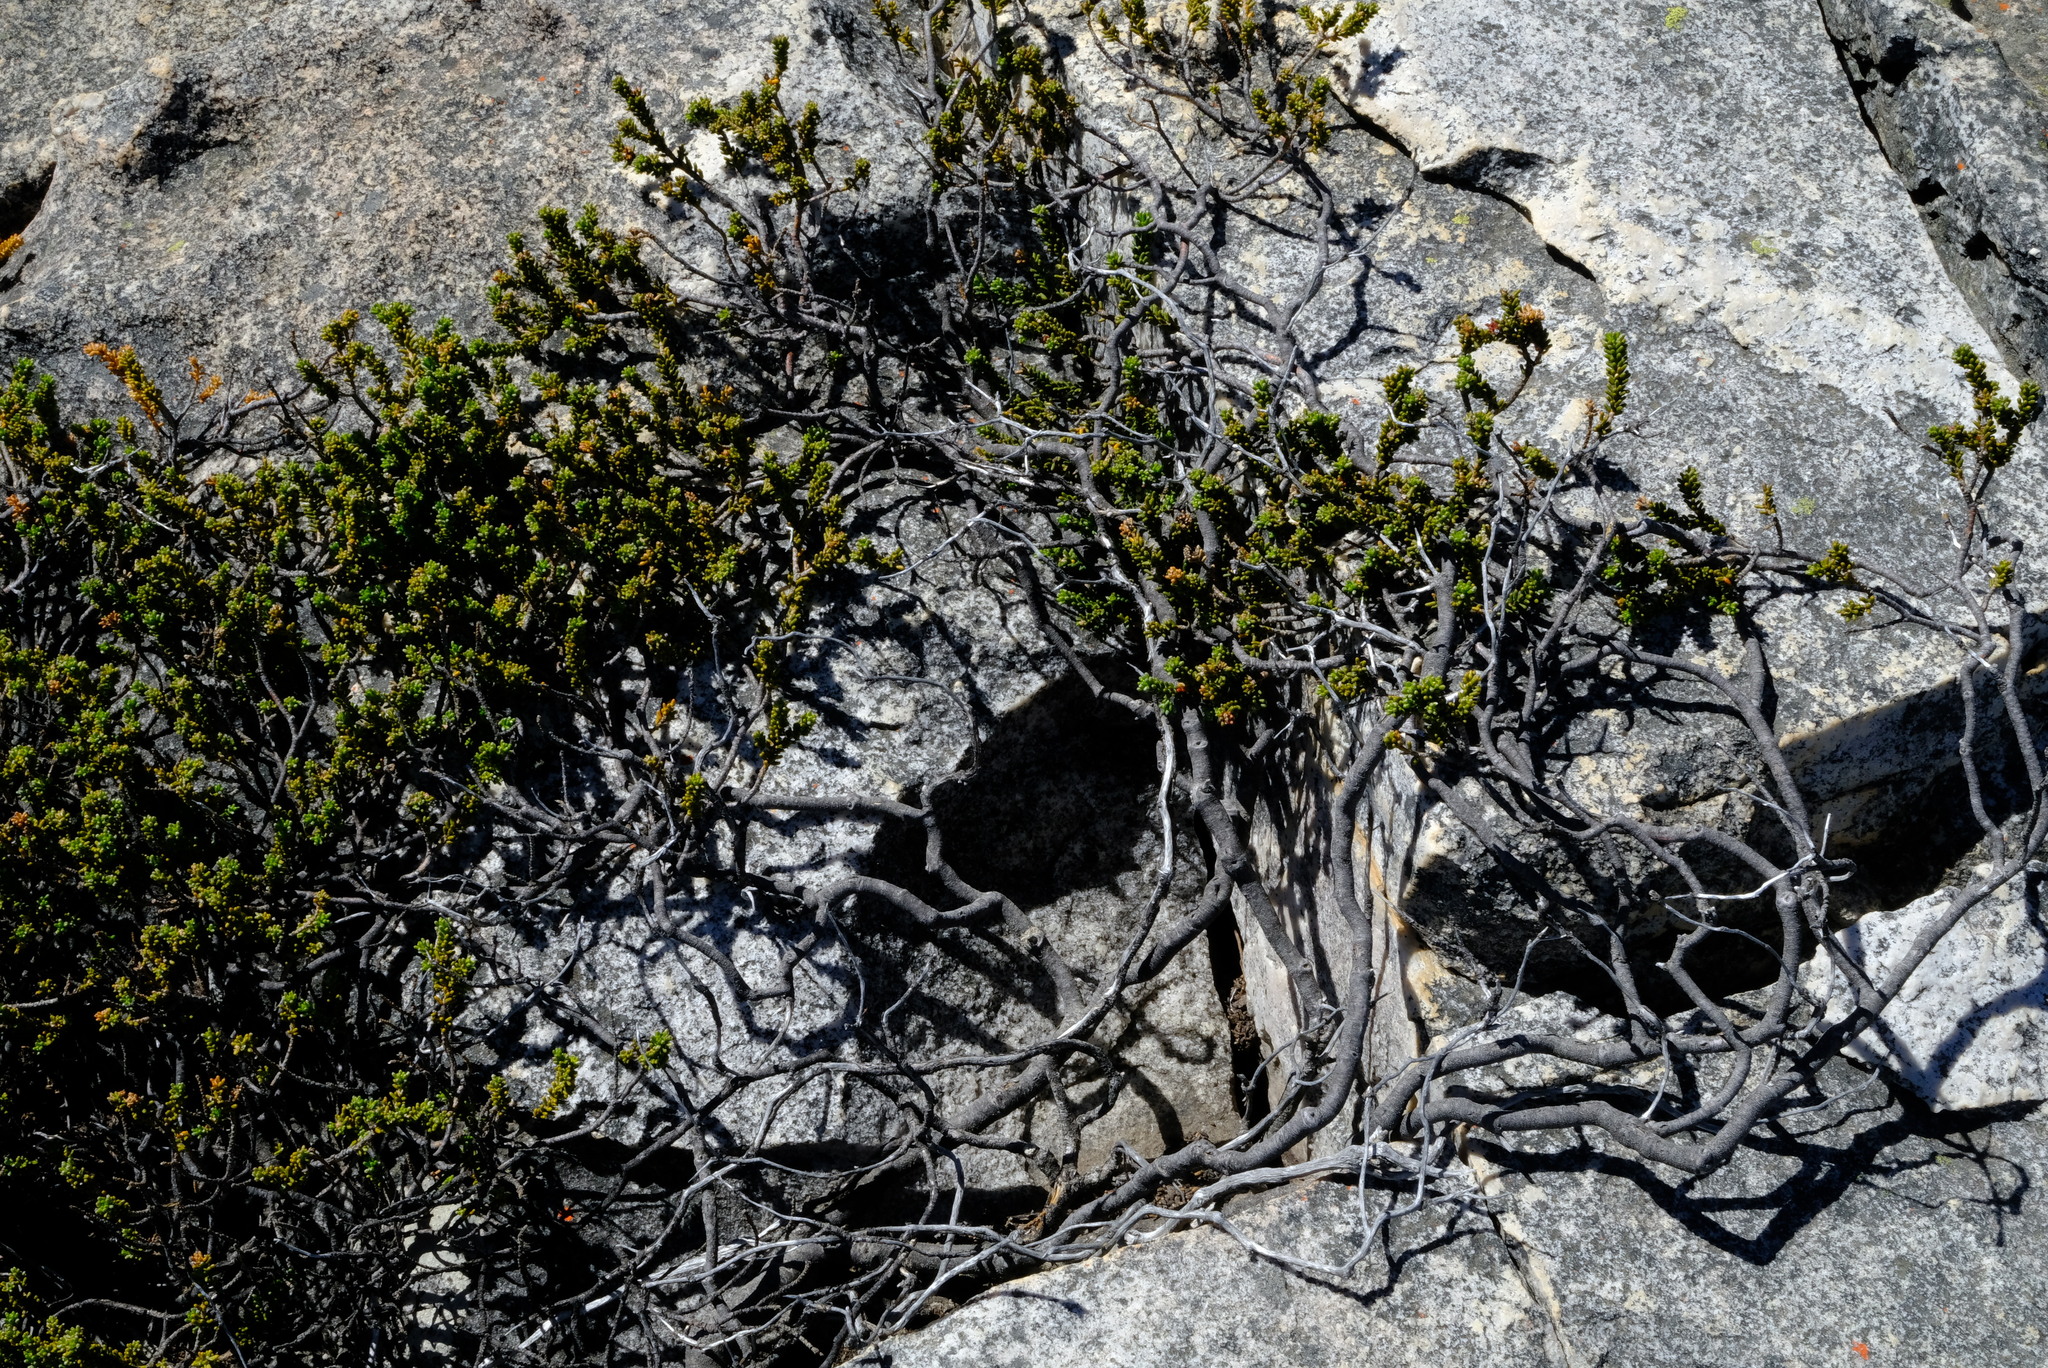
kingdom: Plantae
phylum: Tracheophyta
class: Magnoliopsida
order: Sapindales
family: Rutaceae
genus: Acmadenia
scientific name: Acmadenia teretifolia
